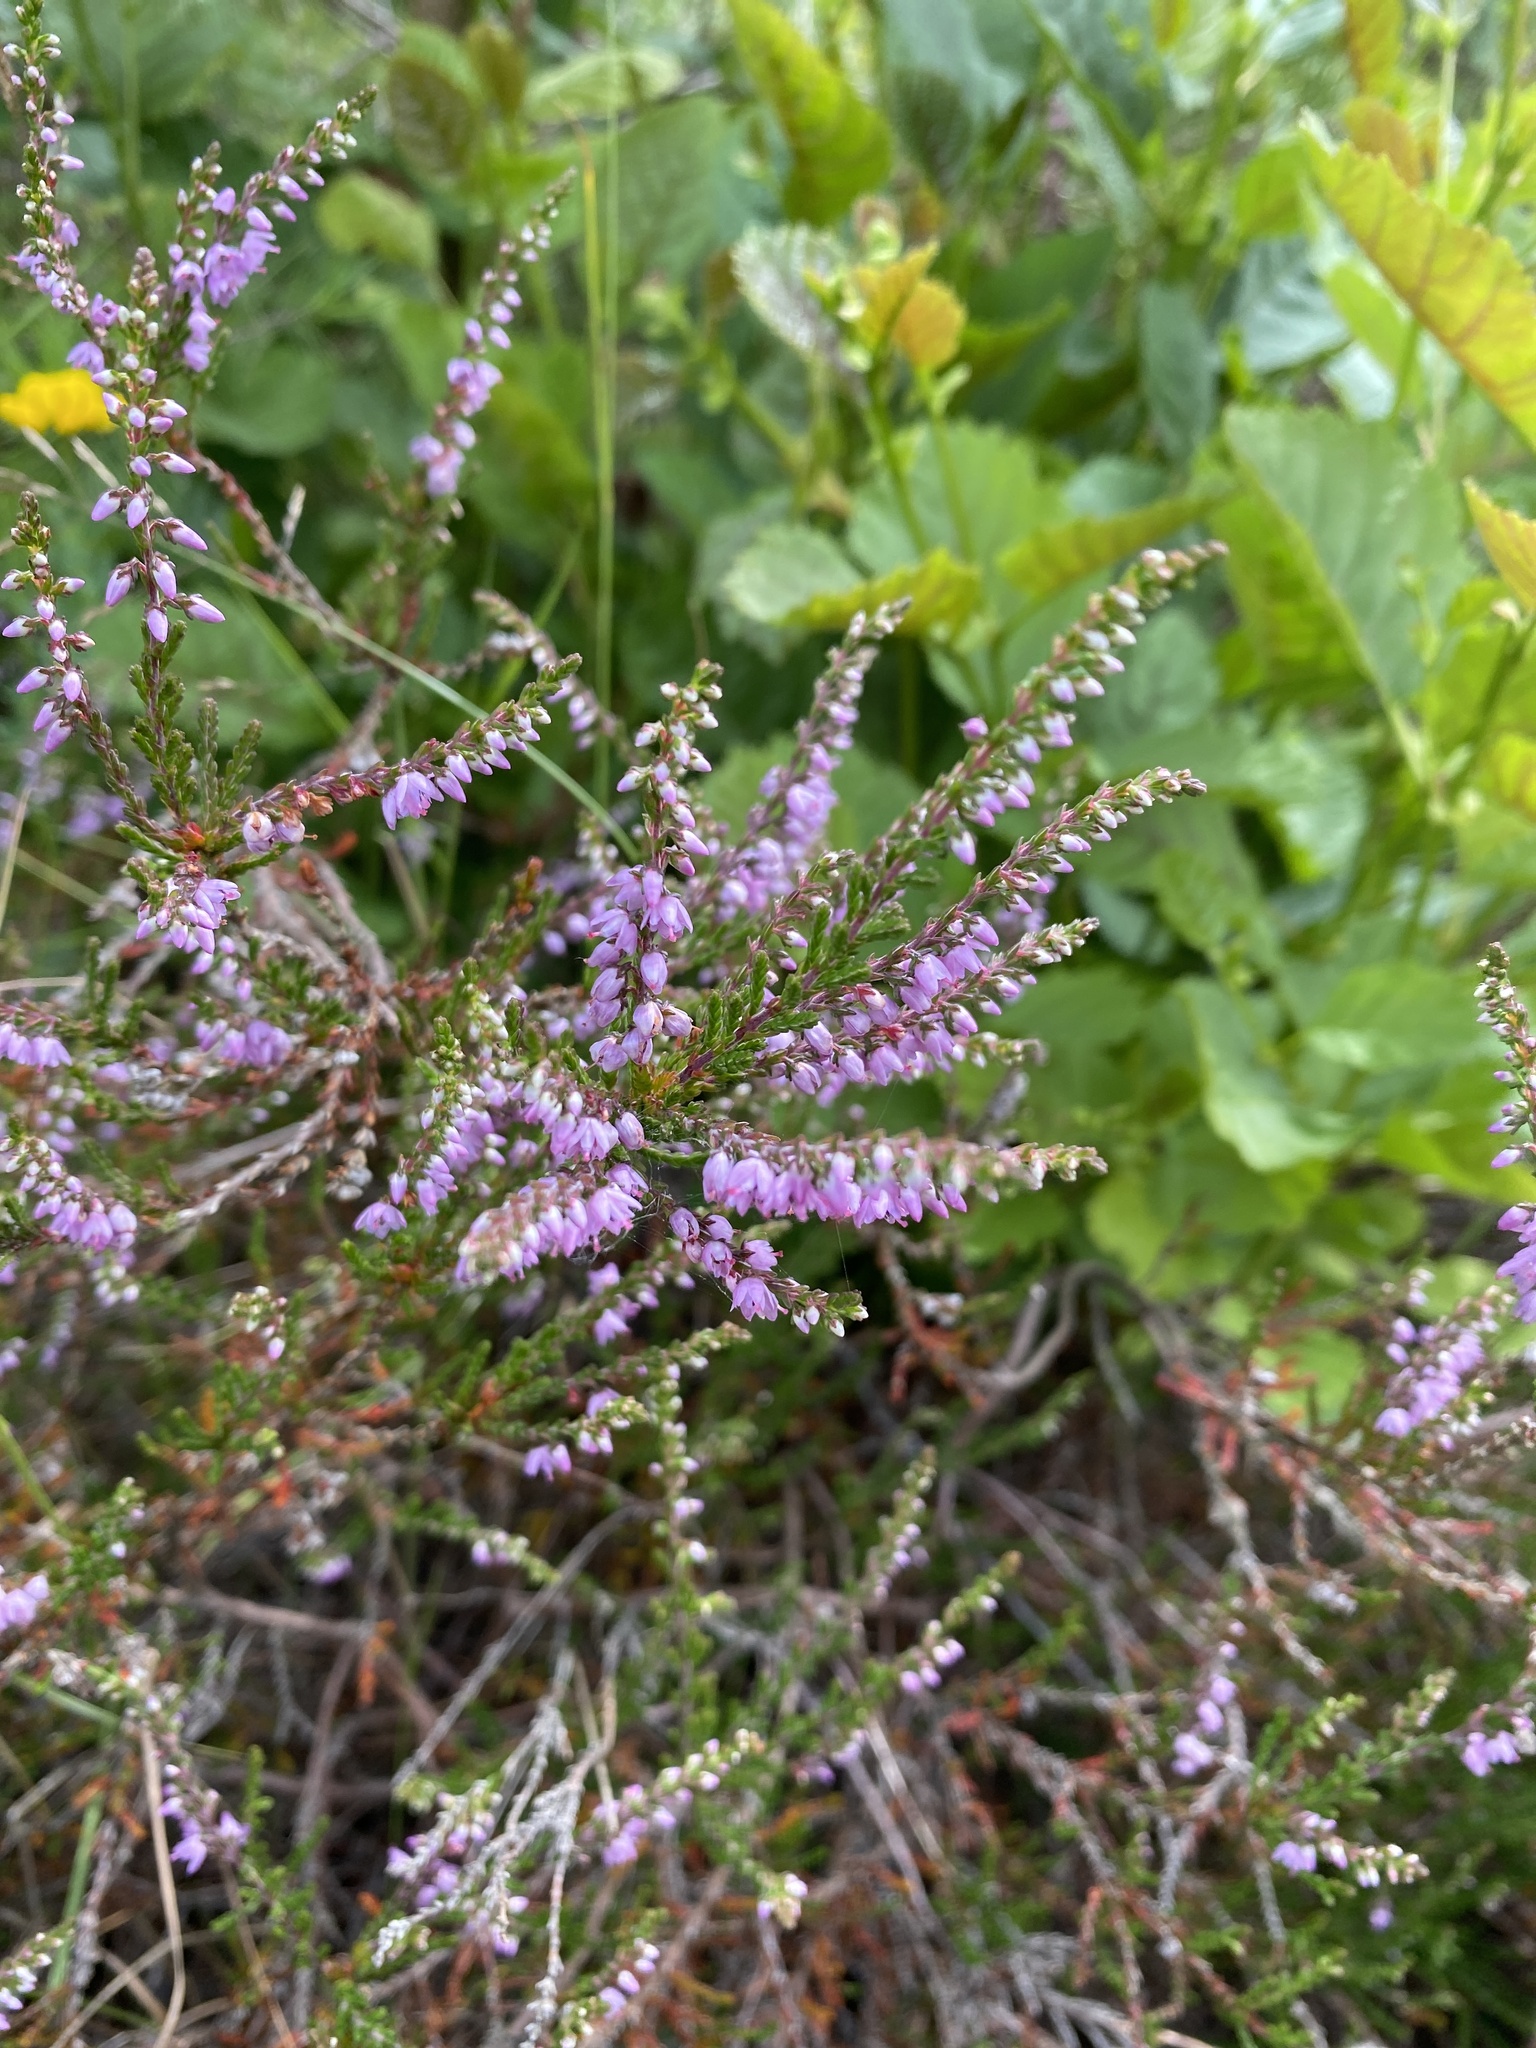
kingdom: Plantae
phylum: Tracheophyta
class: Magnoliopsida
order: Ericales
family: Ericaceae
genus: Calluna
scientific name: Calluna vulgaris
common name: Heather
